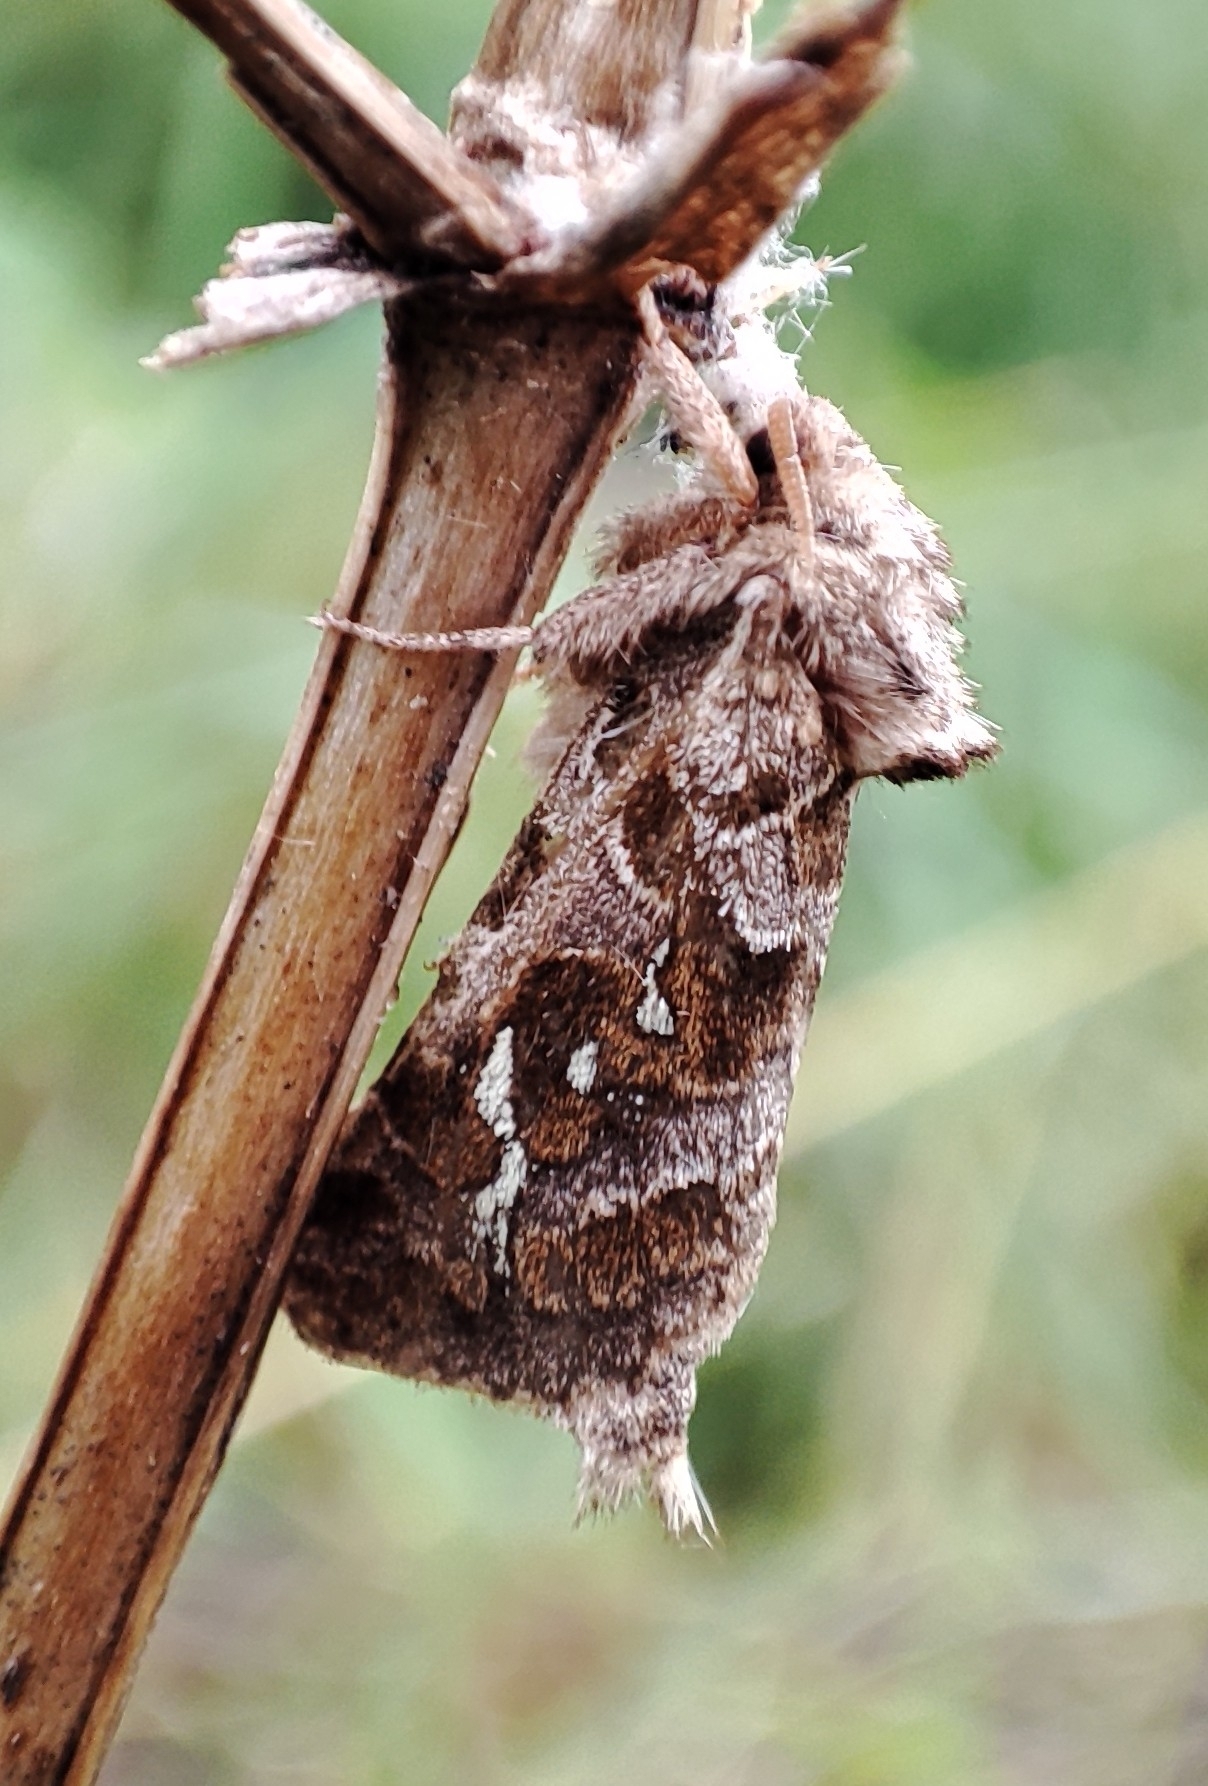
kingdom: Animalia
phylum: Arthropoda
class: Insecta
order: Lepidoptera
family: Hepialidae
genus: Triodia
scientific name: Triodia nubifer
